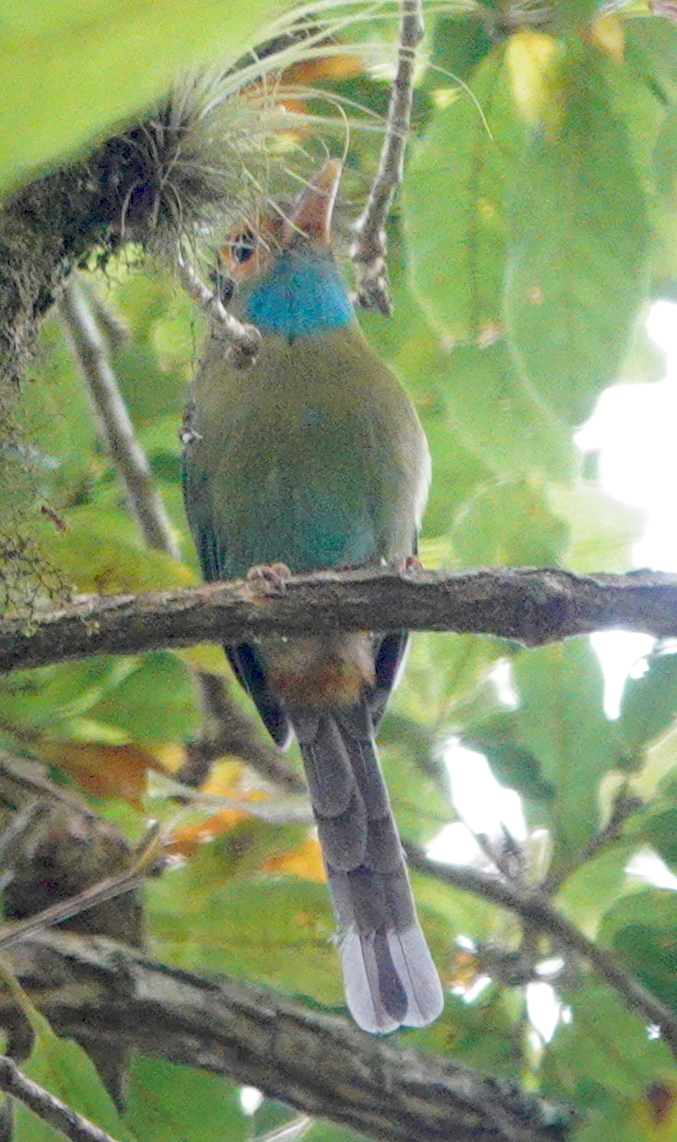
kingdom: Animalia
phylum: Chordata
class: Aves
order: Coraciiformes
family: Momotidae
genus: Aspatha
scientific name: Aspatha gularis
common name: Blue-throated motmot
